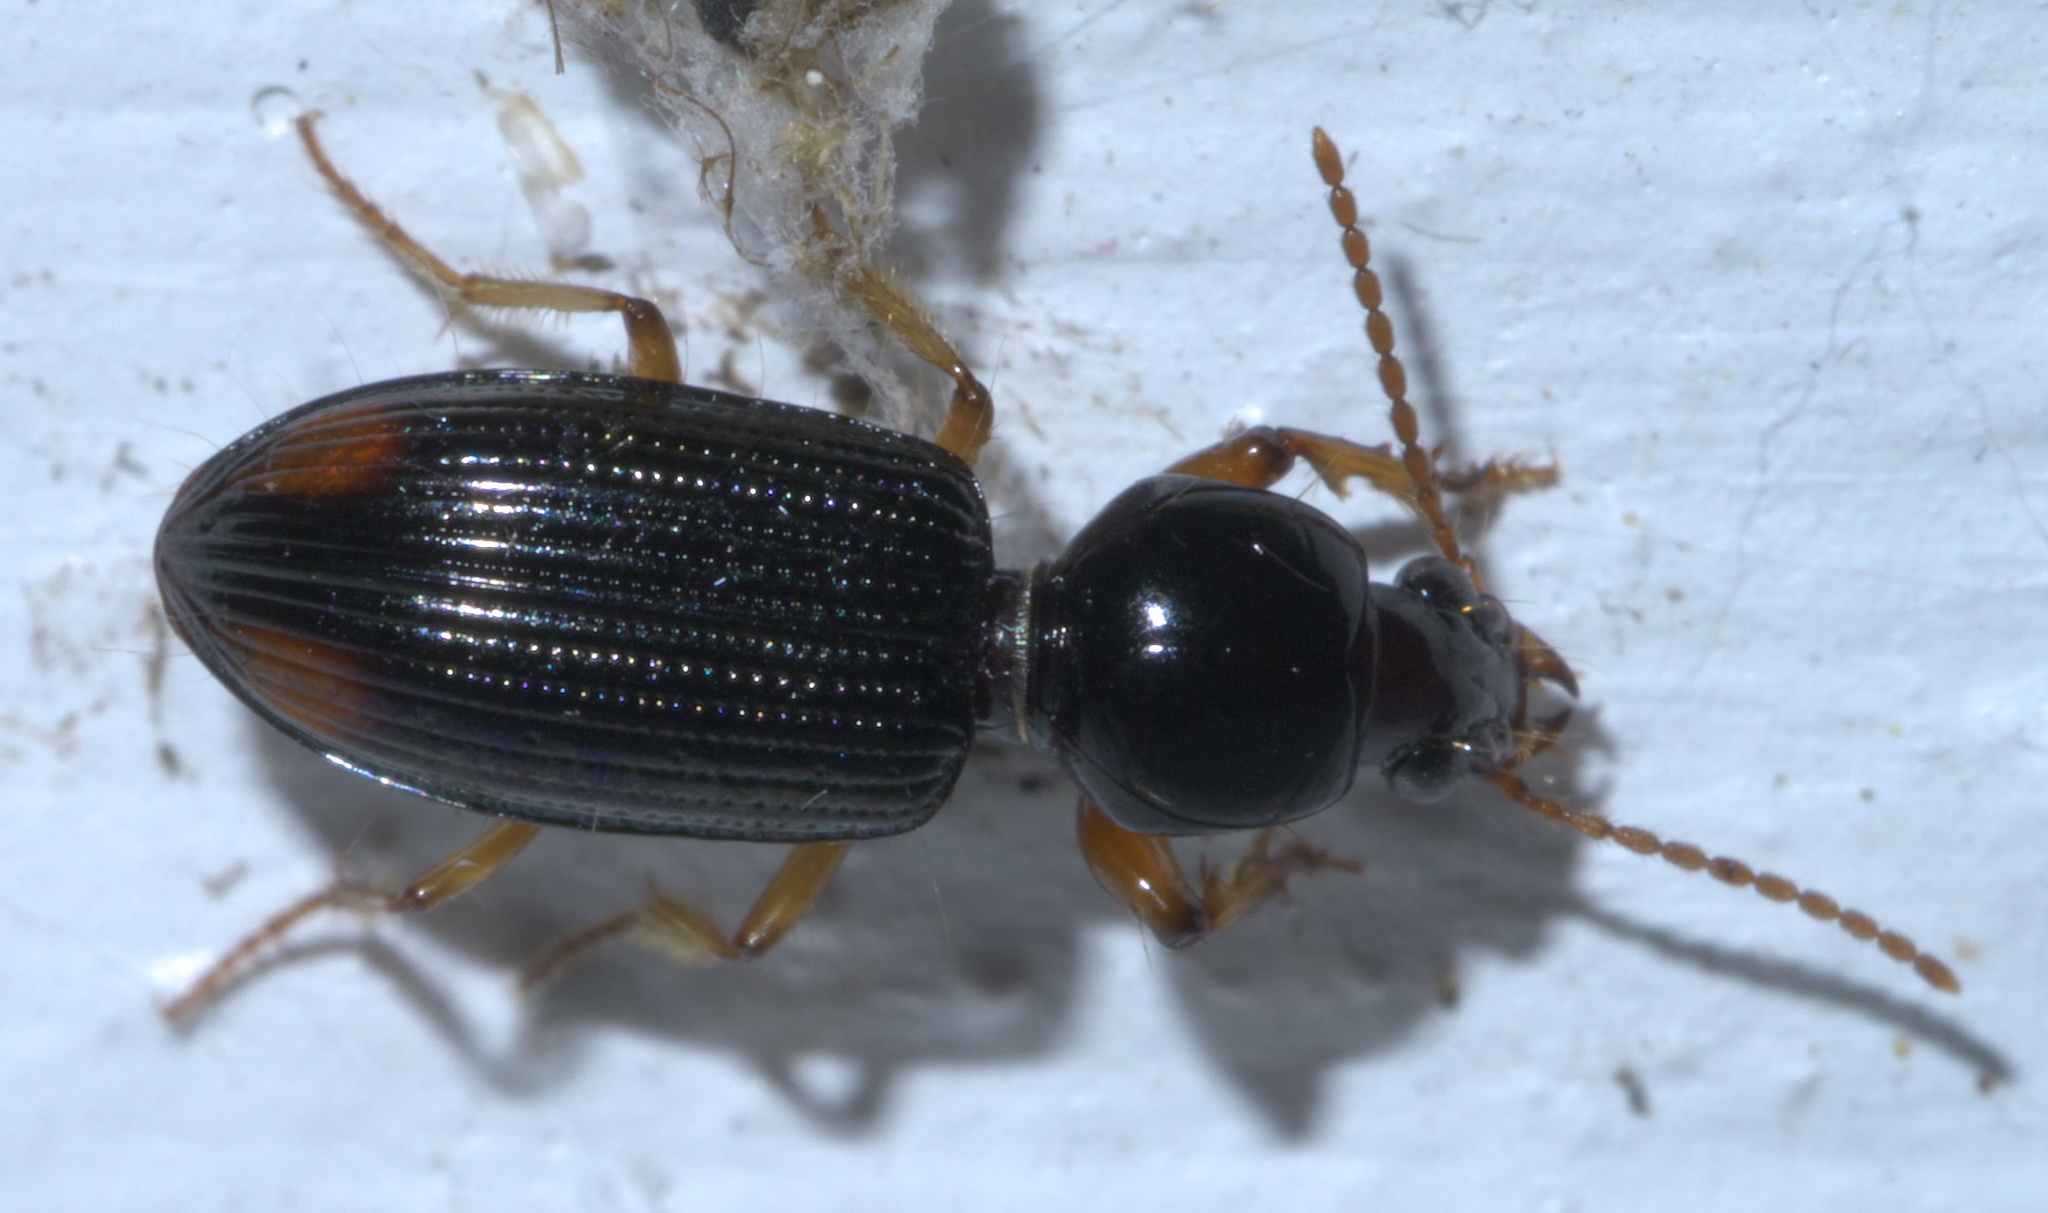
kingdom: Animalia
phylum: Arthropoda
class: Insecta
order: Coleoptera
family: Carabidae
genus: Aspidoglossa
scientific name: Aspidoglossa subangulata
